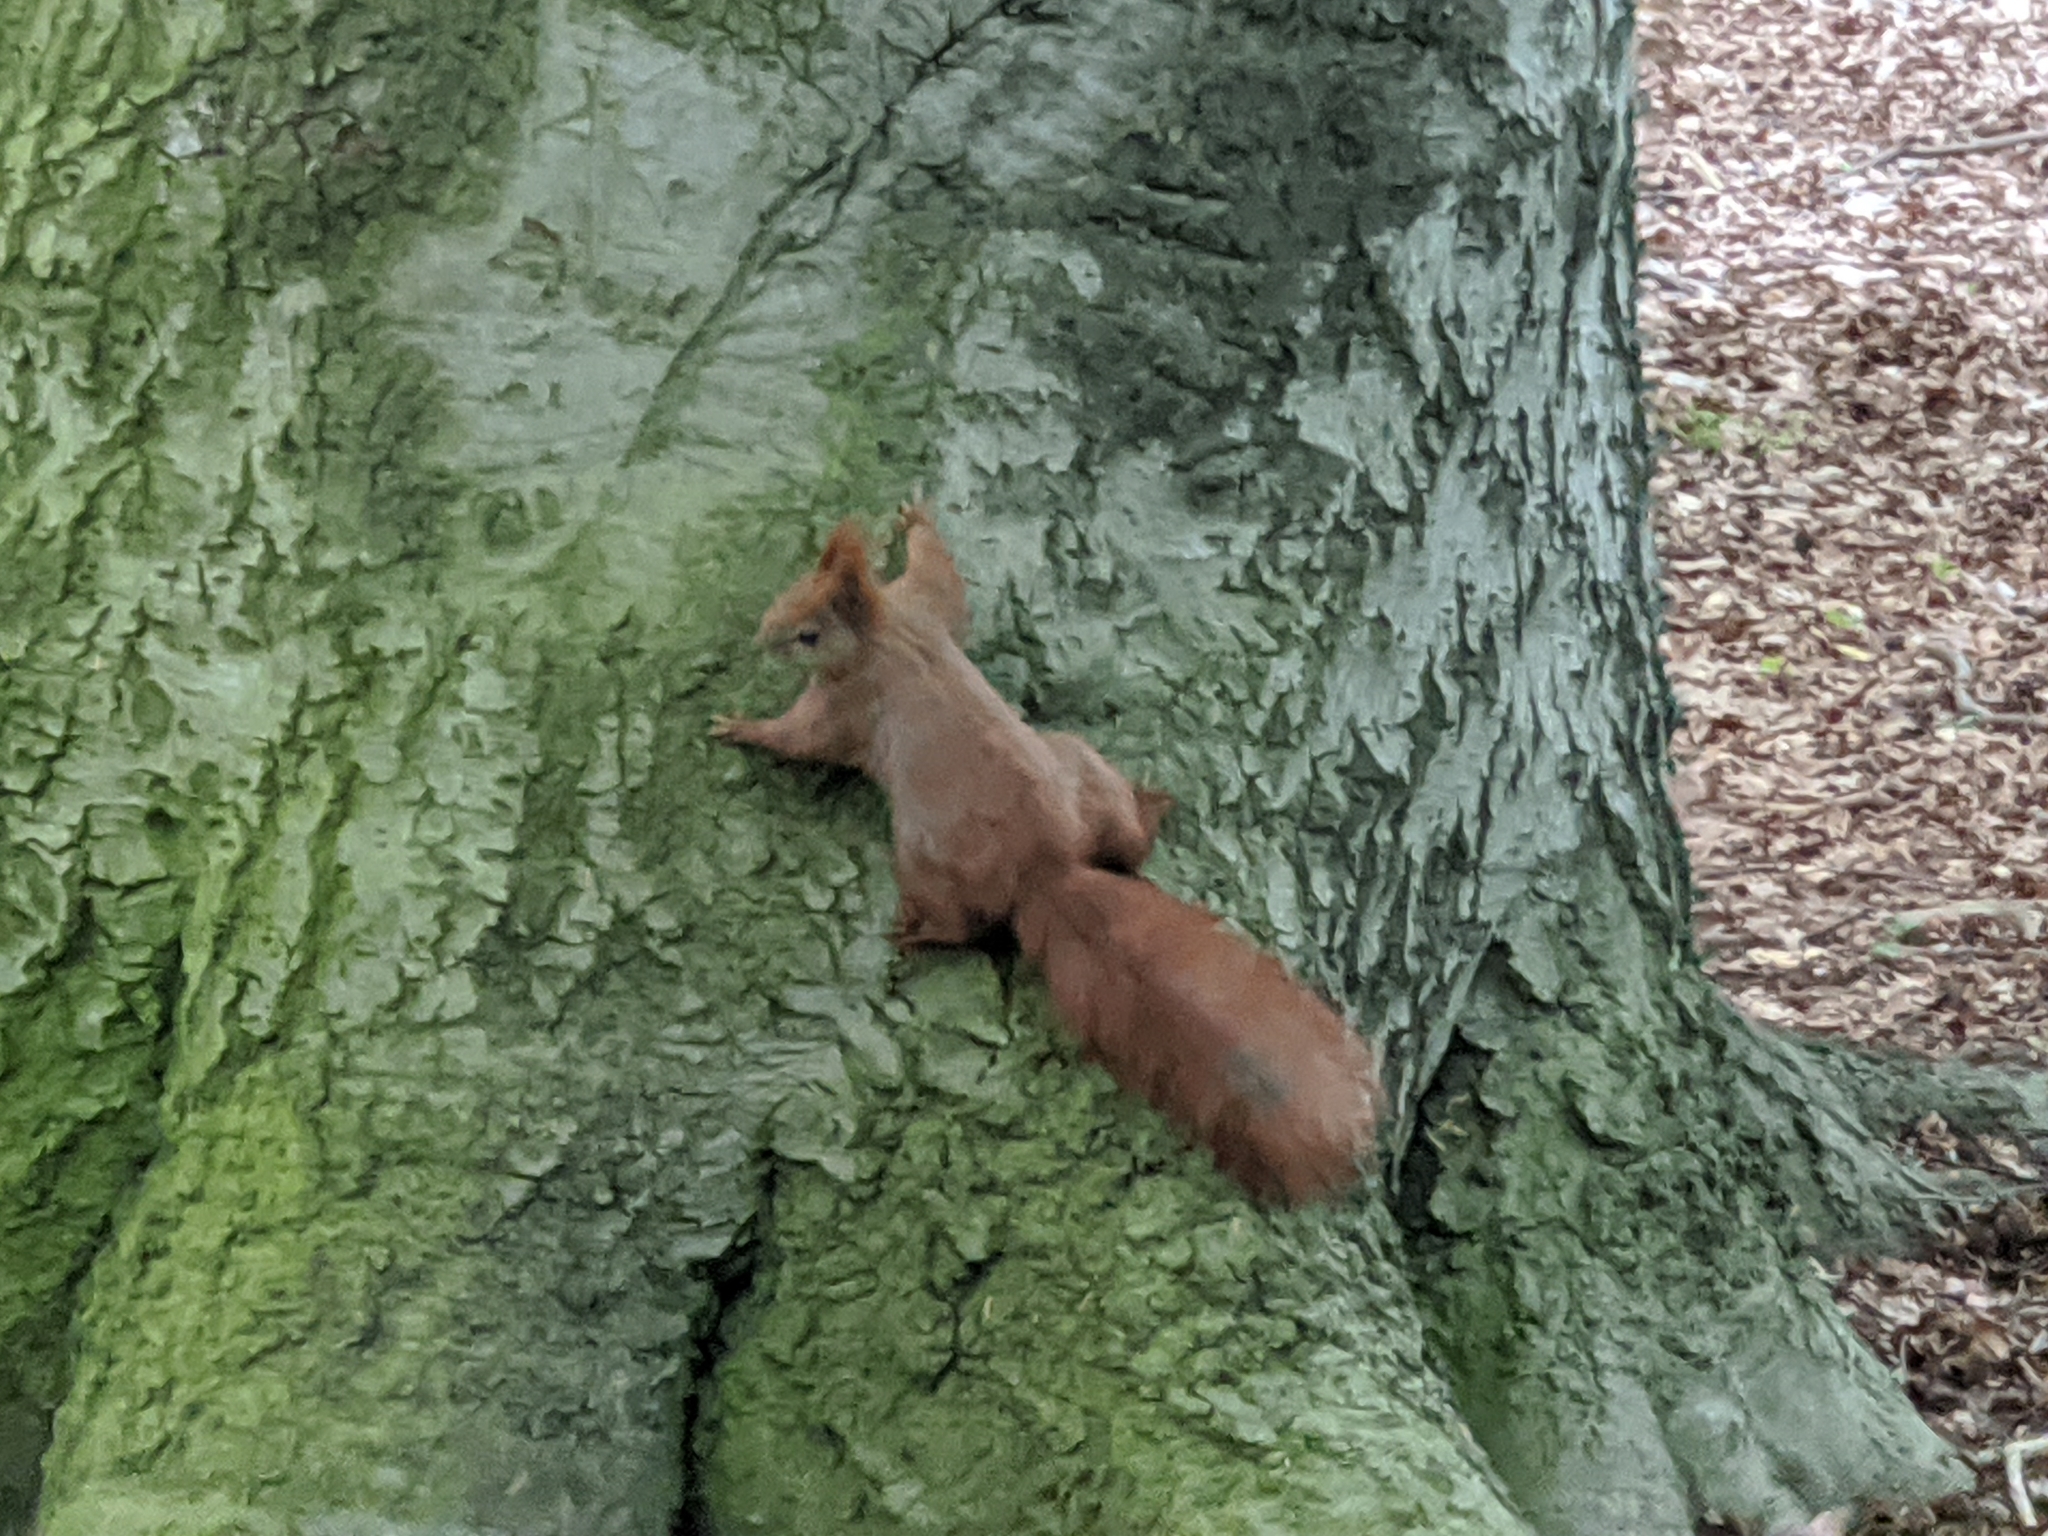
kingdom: Animalia
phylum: Chordata
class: Mammalia
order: Rodentia
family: Sciuridae
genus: Sciurus
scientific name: Sciurus vulgaris
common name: Eurasian red squirrel
